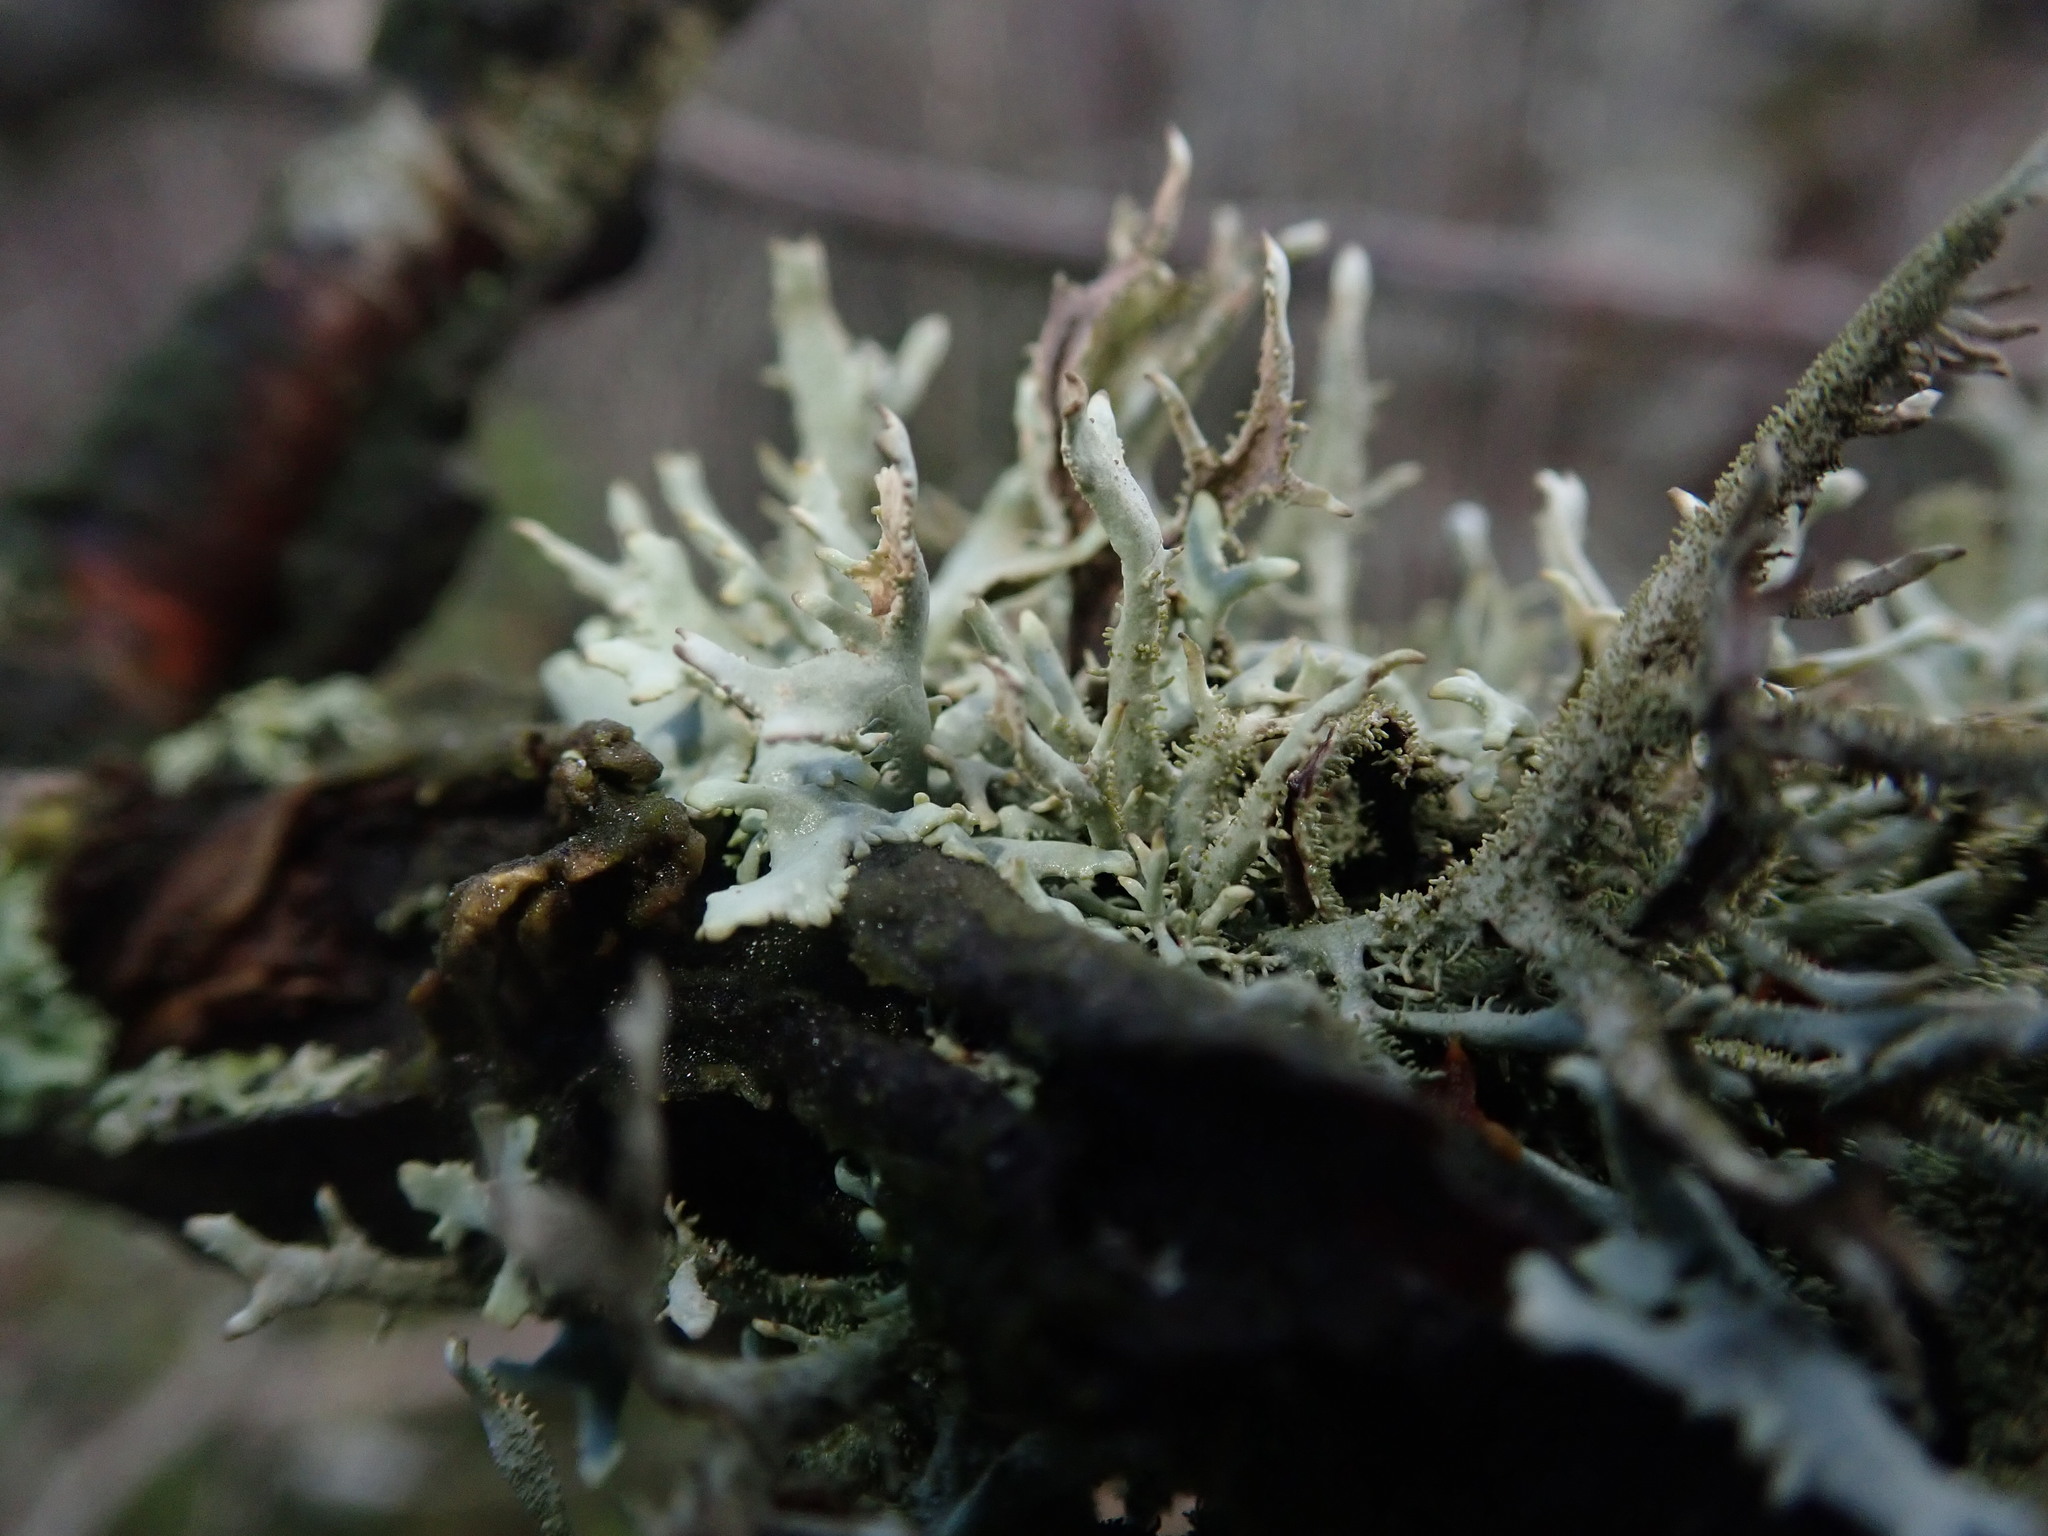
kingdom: Fungi
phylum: Ascomycota
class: Lecanoromycetes
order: Lecanorales
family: Parmeliaceae
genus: Pseudevernia
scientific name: Pseudevernia furfuracea
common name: Tree moss
